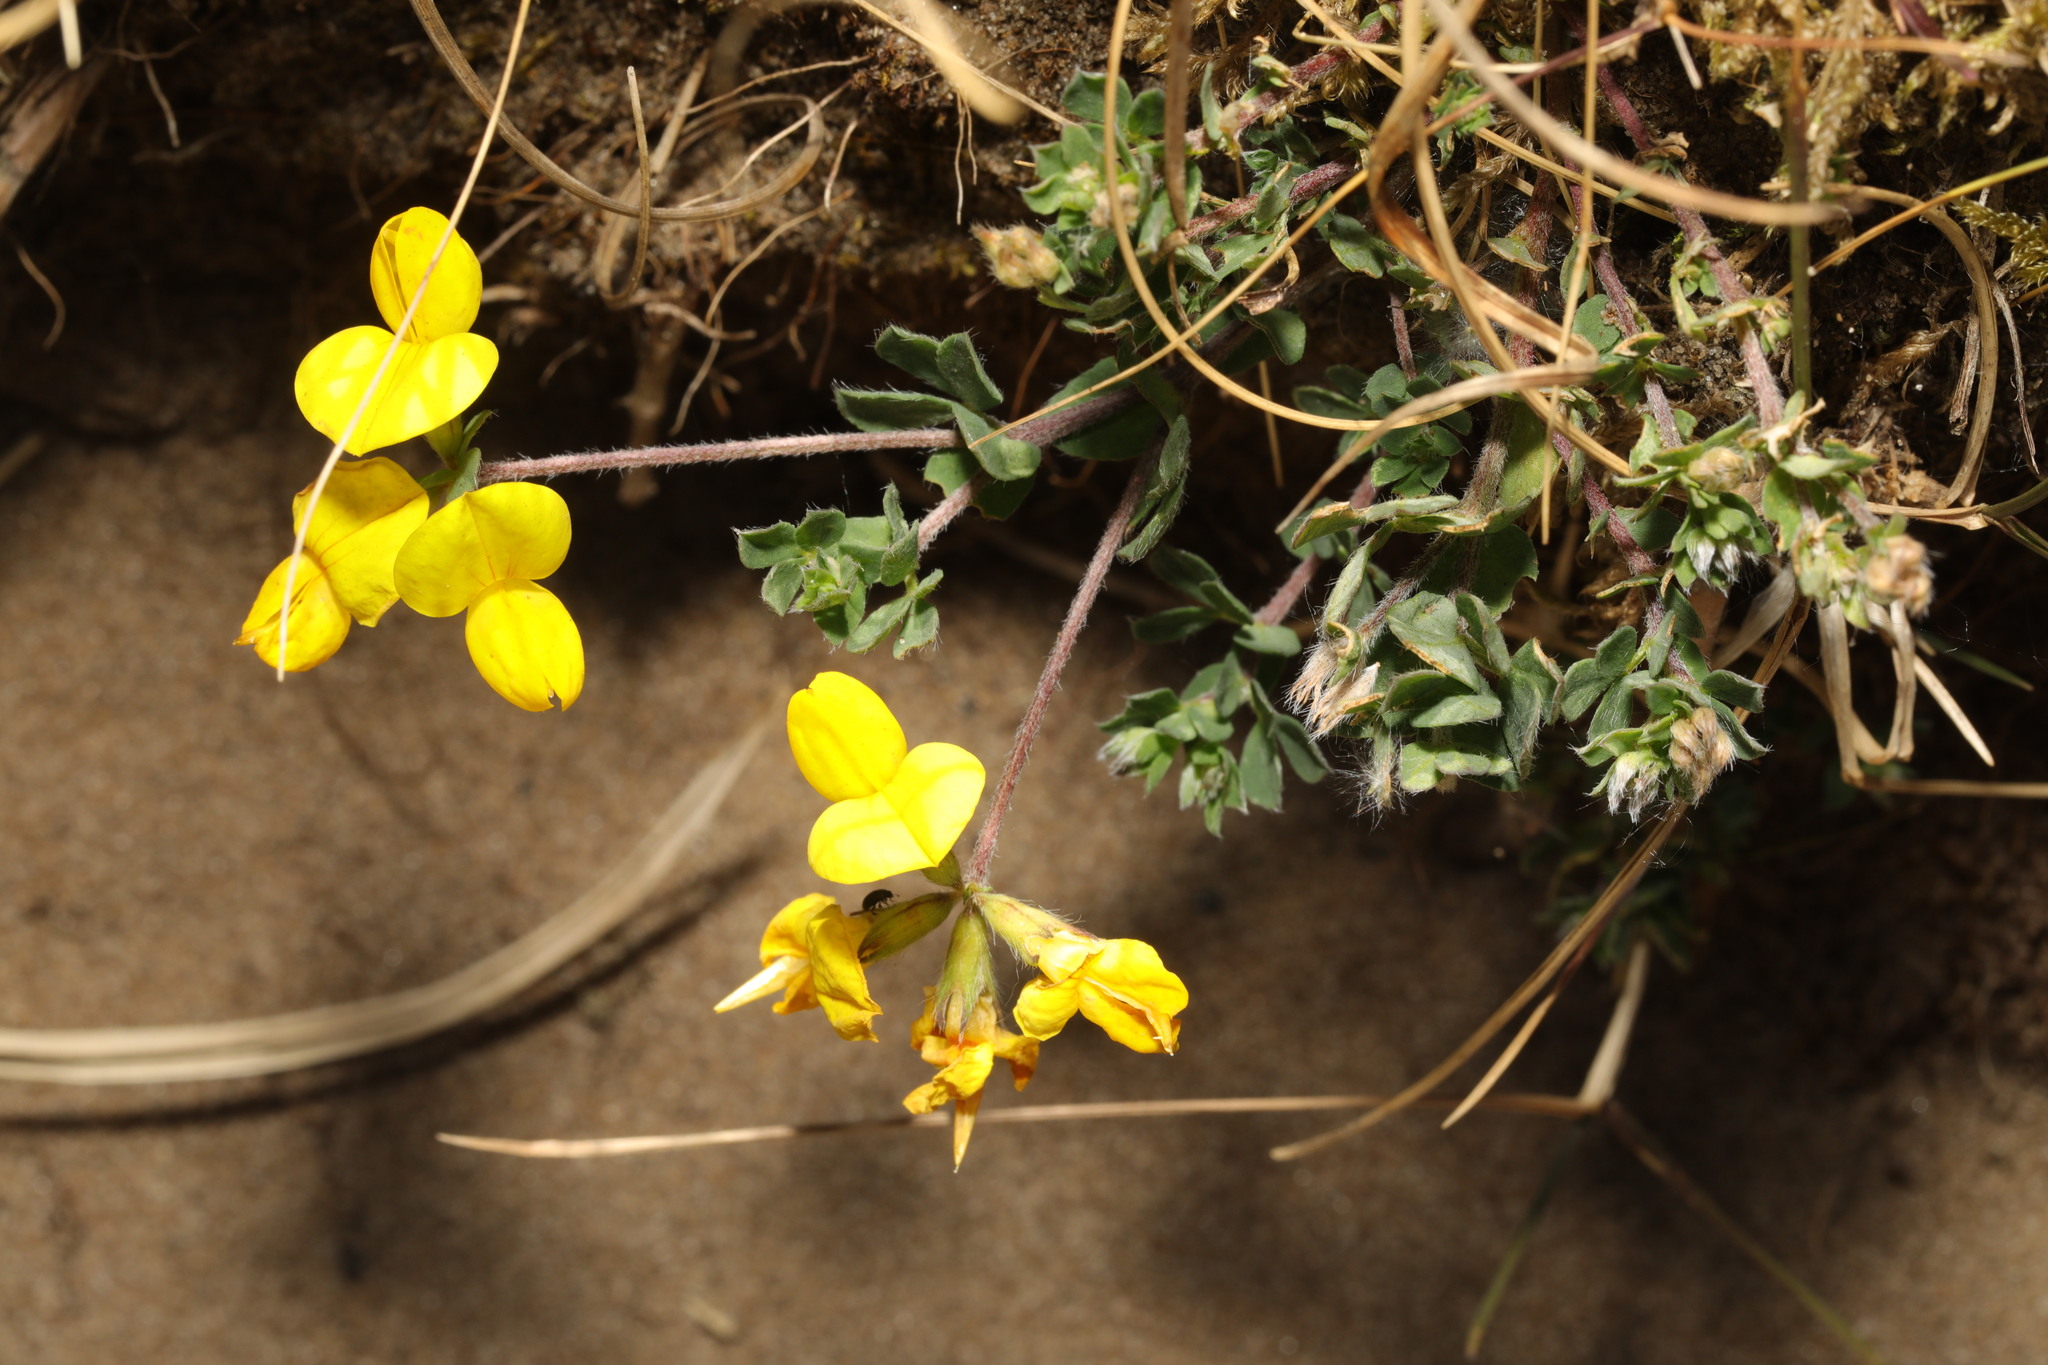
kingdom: Plantae
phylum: Tracheophyta
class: Magnoliopsida
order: Fabales
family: Fabaceae
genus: Lotus
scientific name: Lotus corniculatus
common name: Common bird's-foot-trefoil
